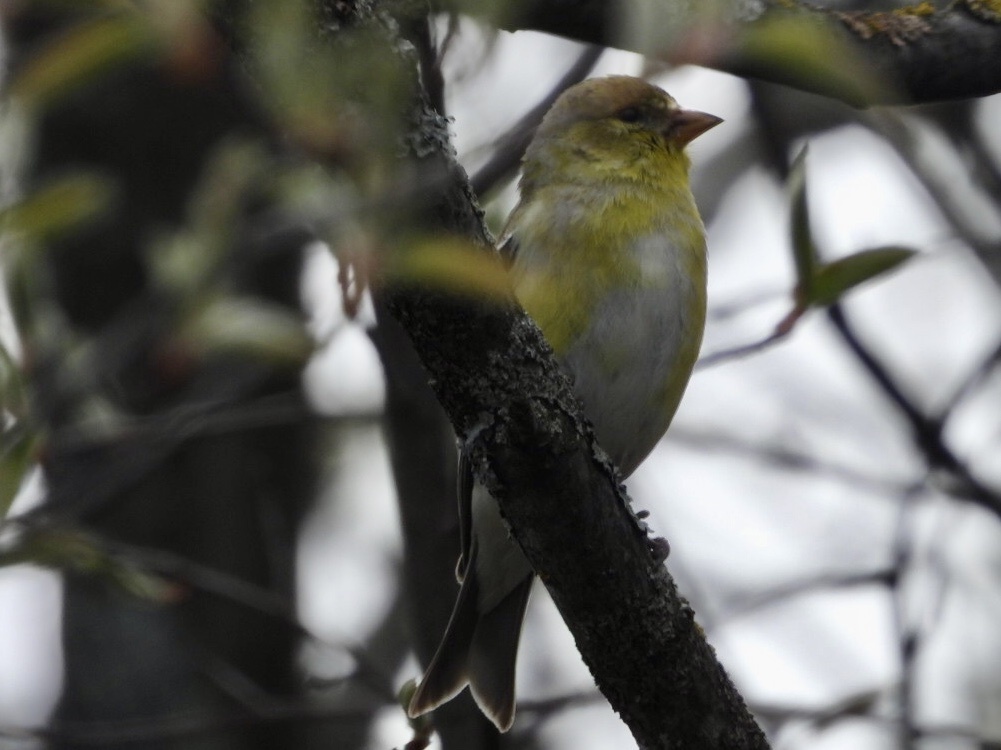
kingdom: Animalia
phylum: Chordata
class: Aves
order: Passeriformes
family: Fringillidae
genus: Spinus
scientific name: Spinus tristis
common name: American goldfinch
